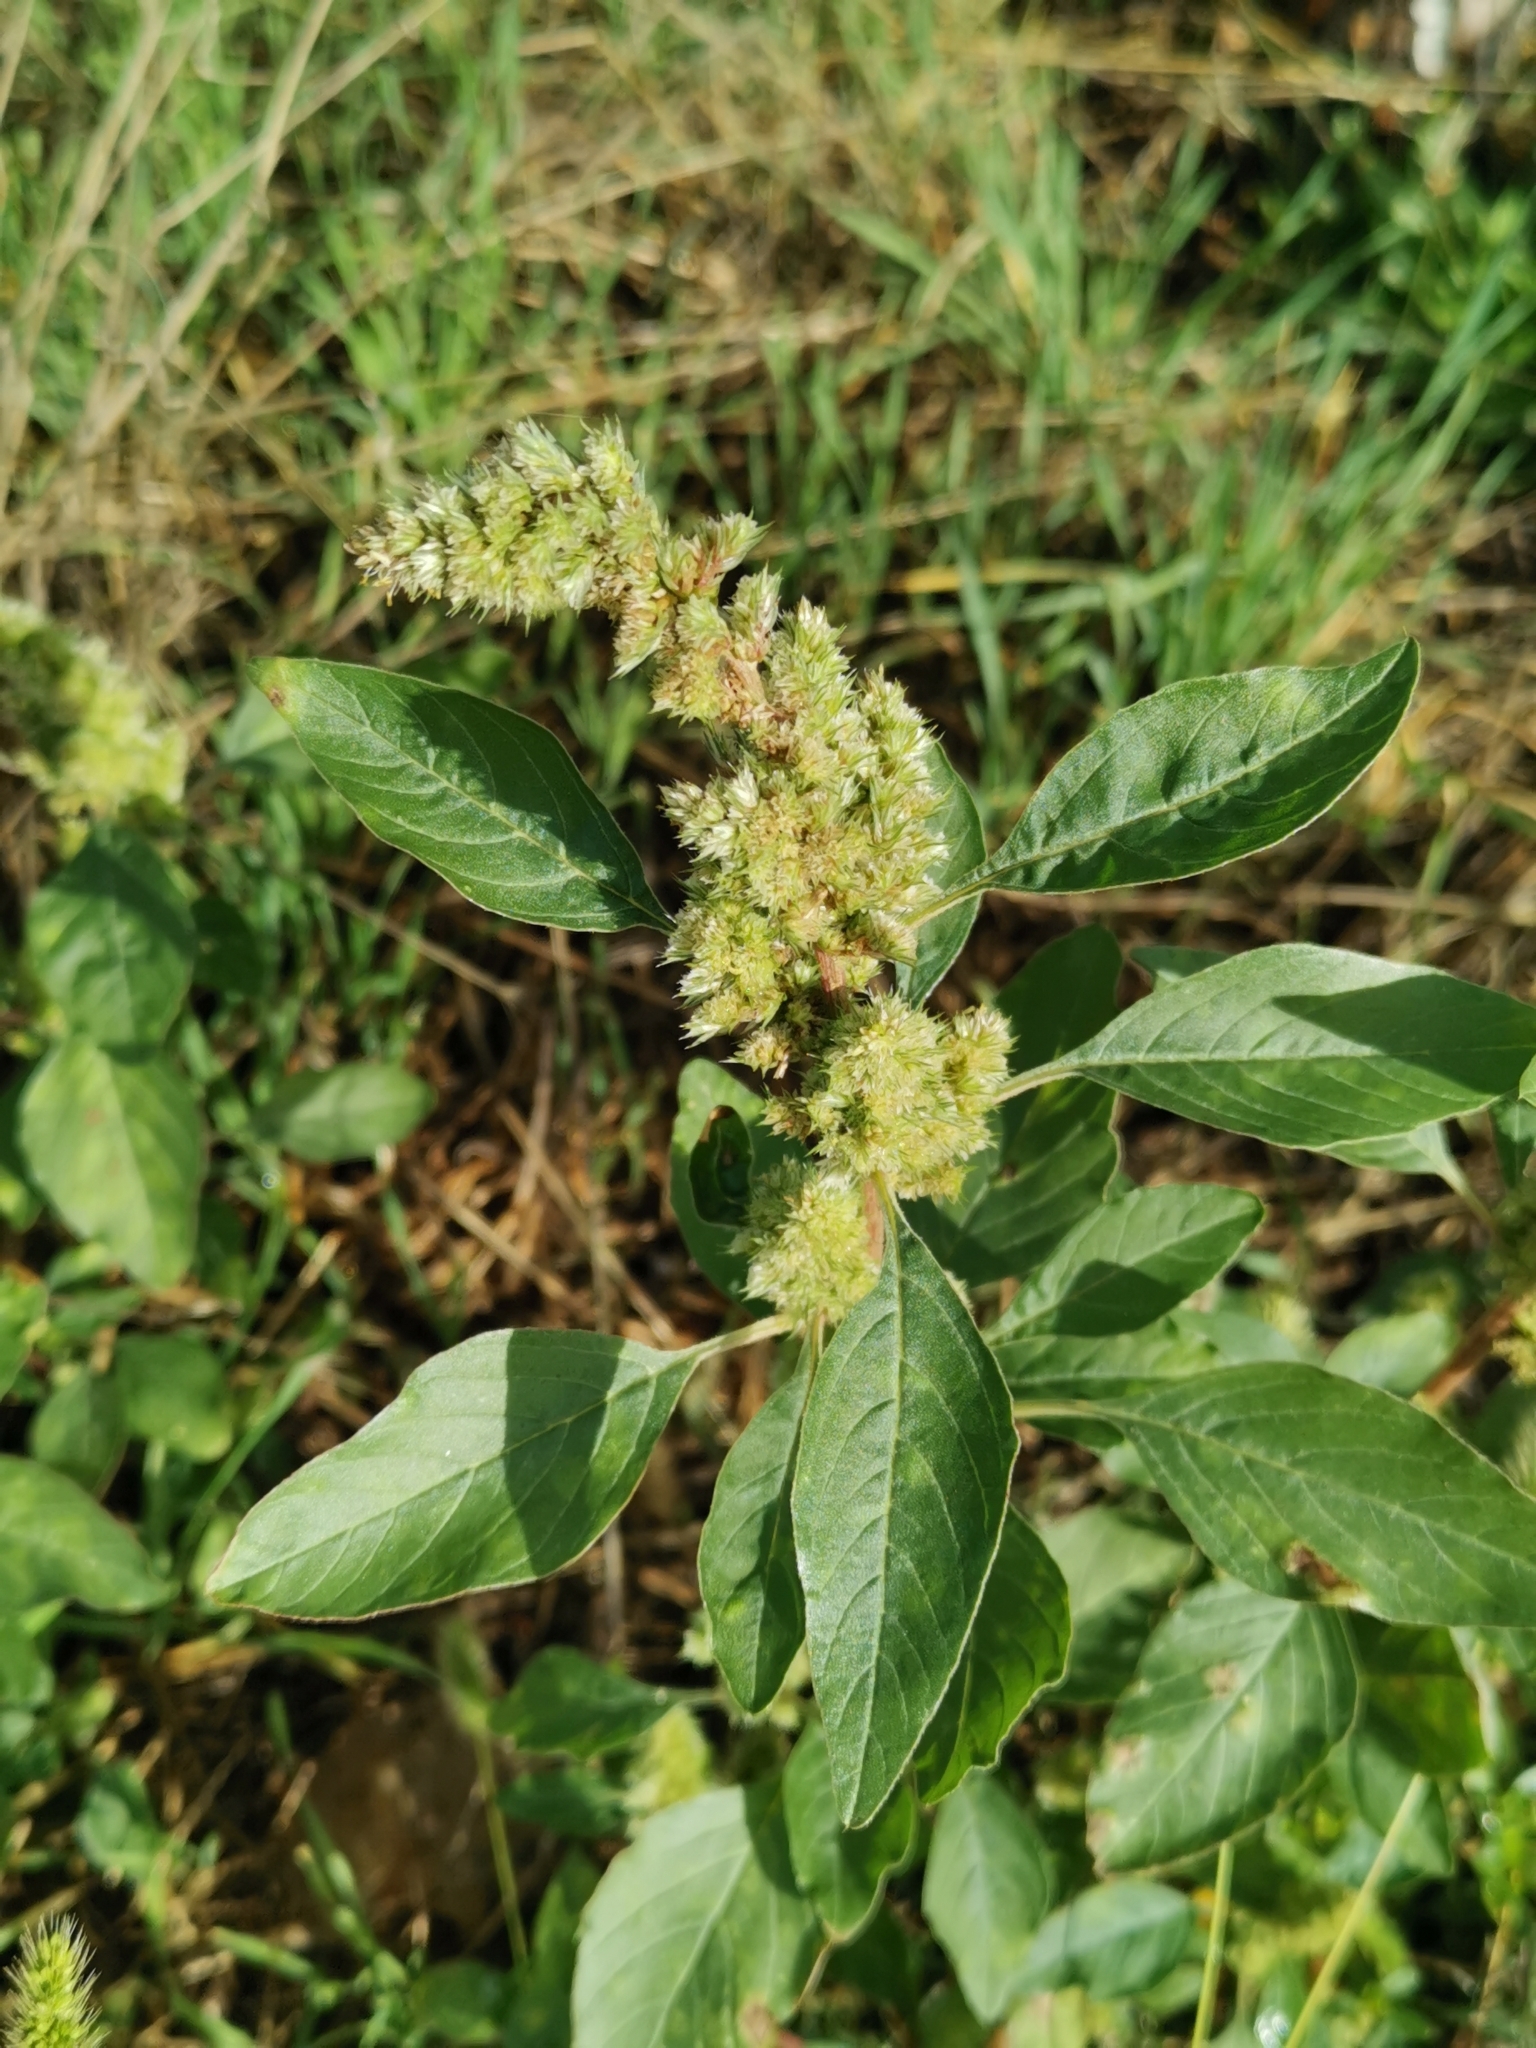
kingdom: Plantae
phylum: Tracheophyta
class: Magnoliopsida
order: Caryophyllales
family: Amaranthaceae
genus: Amaranthus
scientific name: Amaranthus retroflexus
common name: Redroot amaranth
